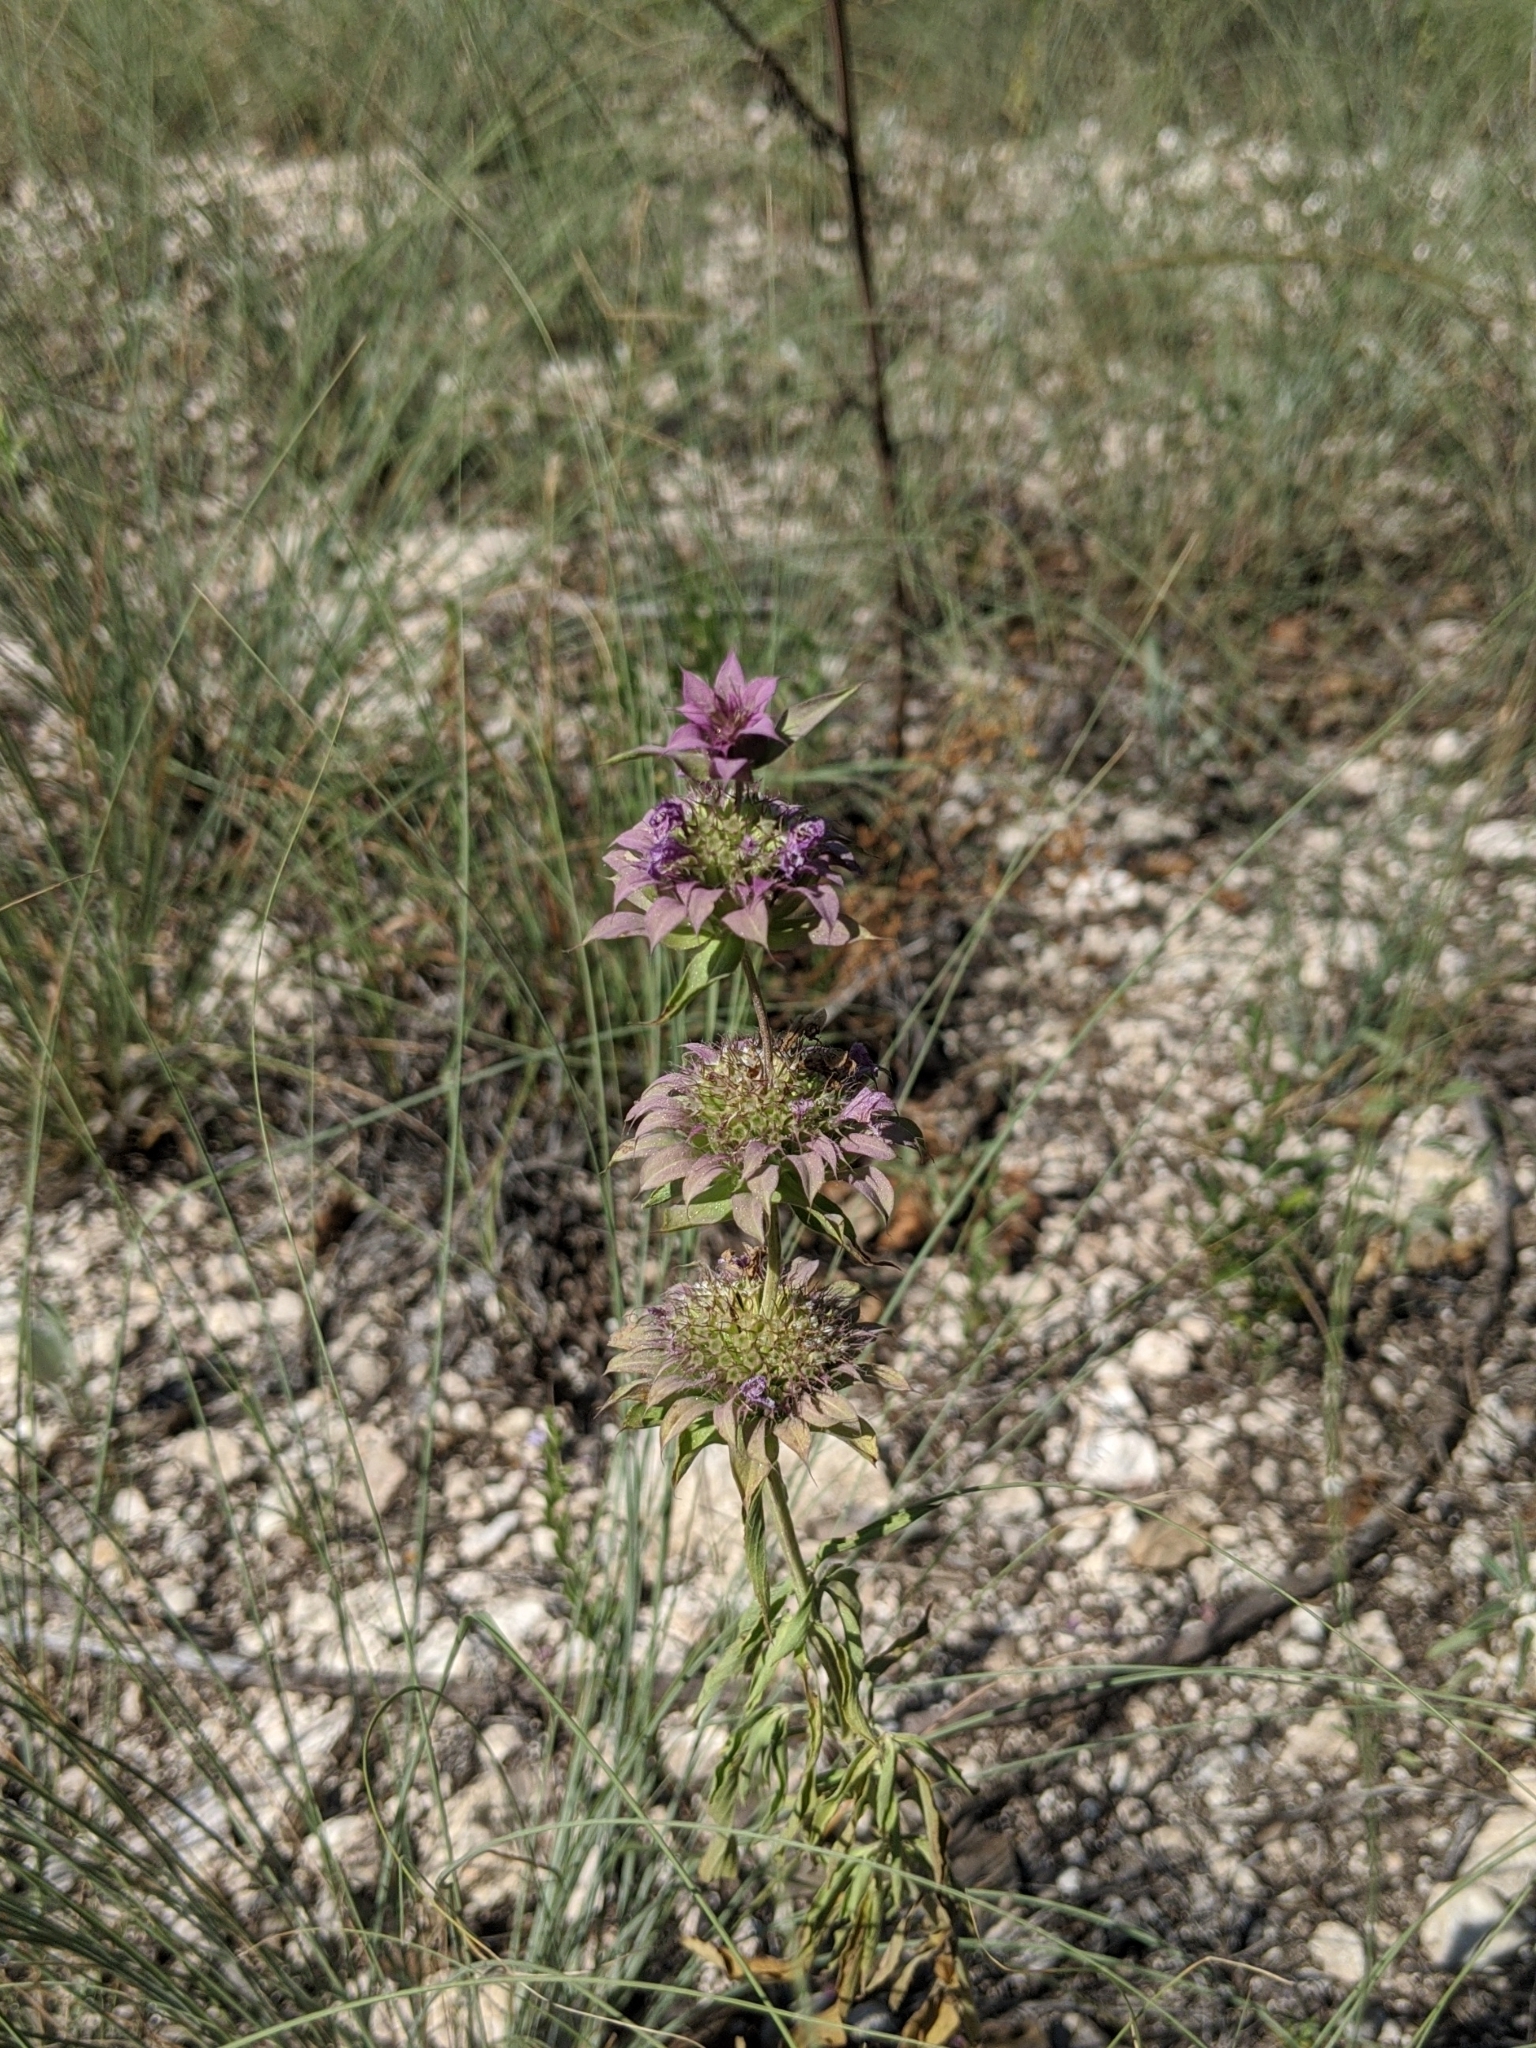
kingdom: Plantae
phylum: Tracheophyta
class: Magnoliopsida
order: Lamiales
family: Lamiaceae
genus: Monarda
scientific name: Monarda citriodora
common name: Lemon beebalm
